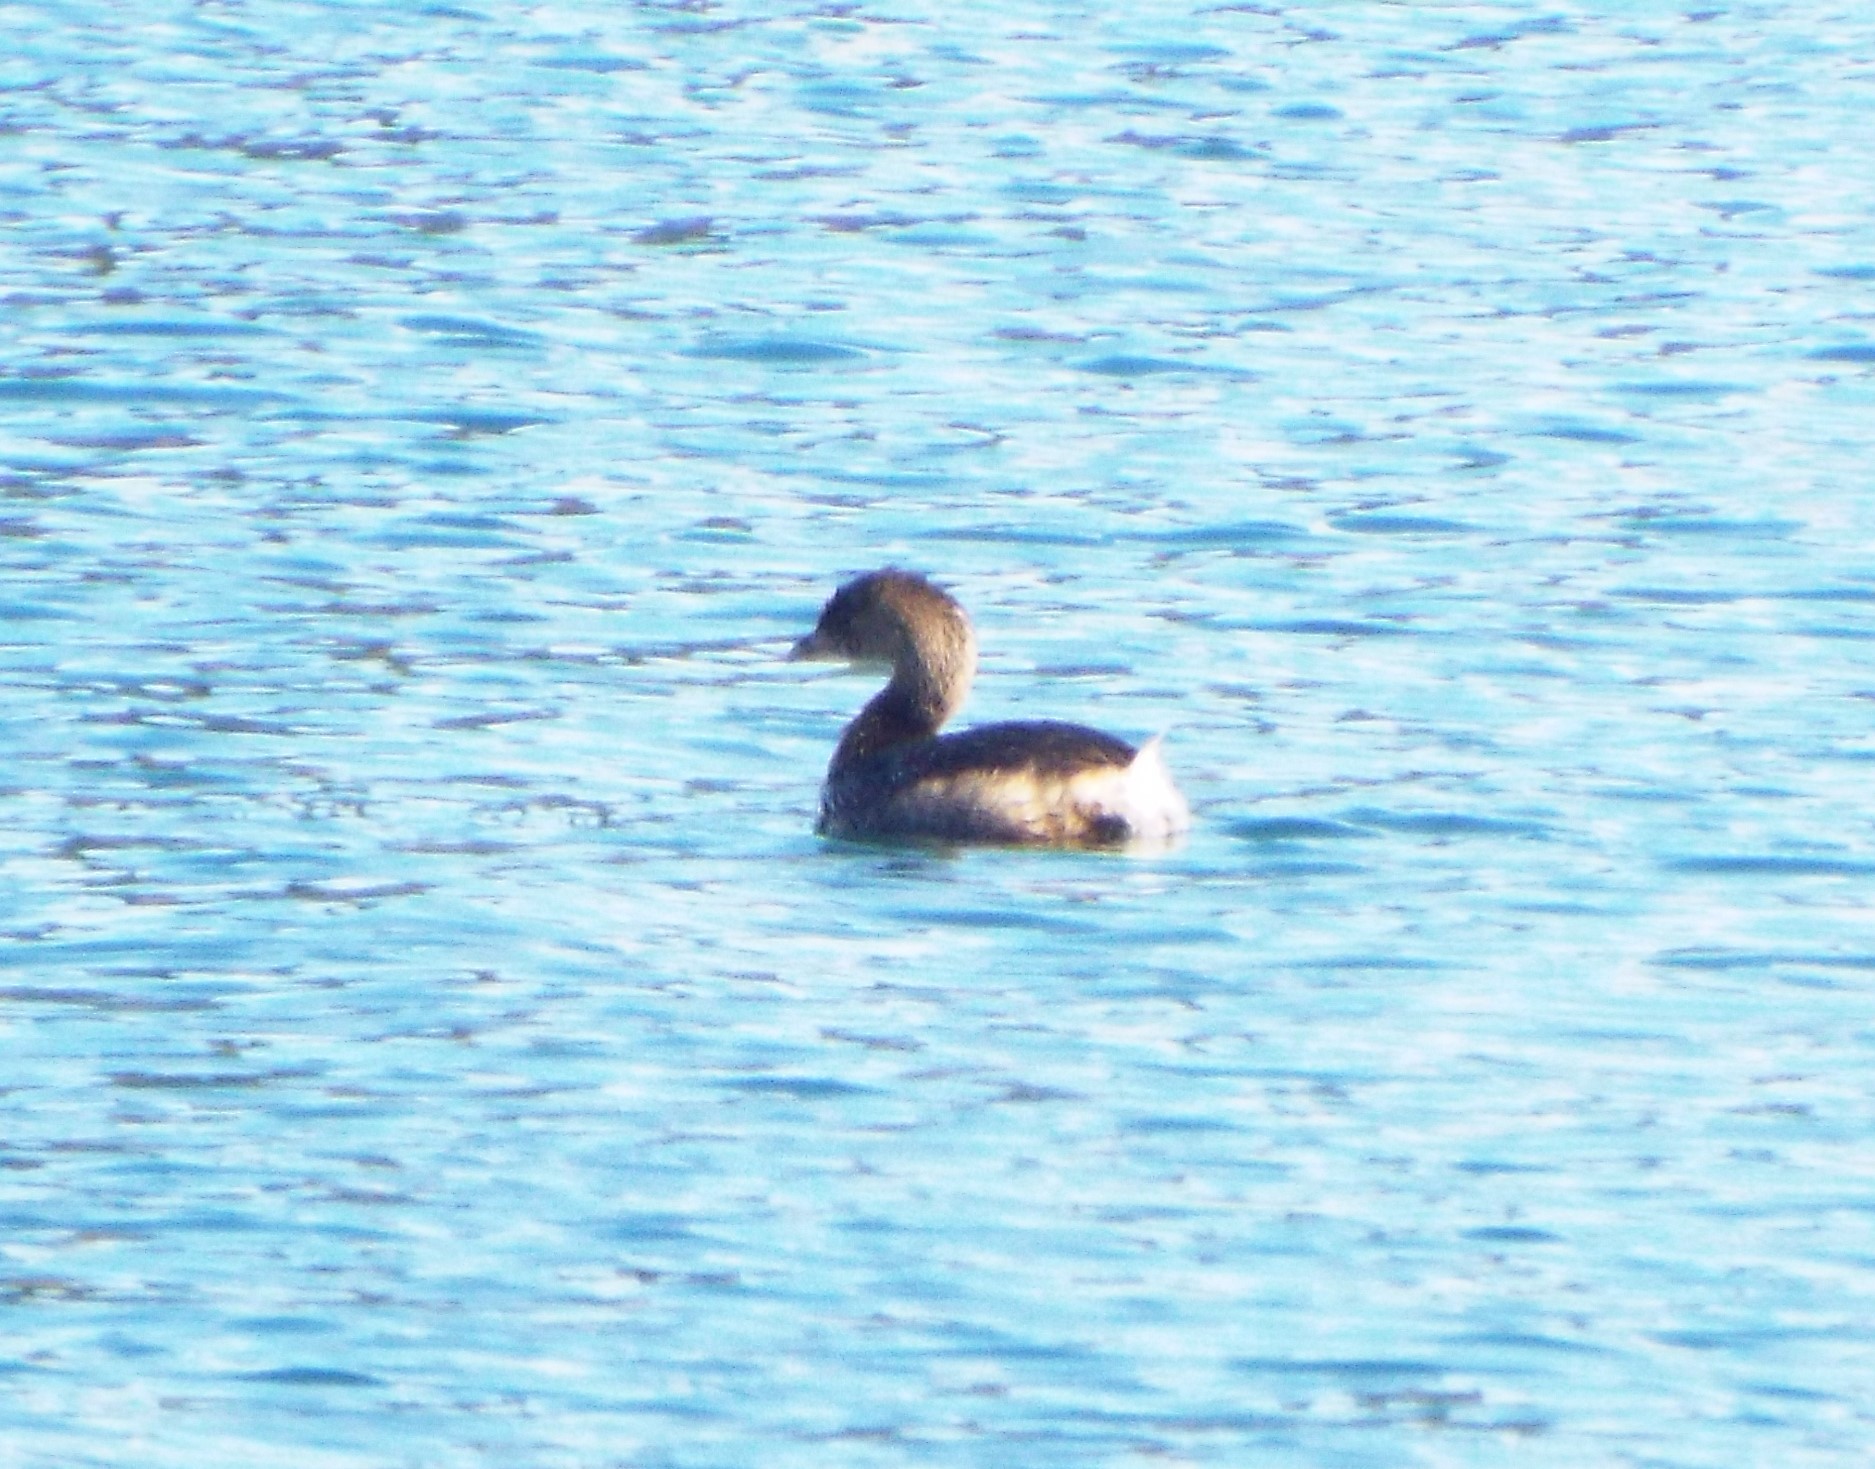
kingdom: Animalia
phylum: Chordata
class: Aves
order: Podicipediformes
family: Podicipedidae
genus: Podilymbus
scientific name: Podilymbus podiceps
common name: Pied-billed grebe
